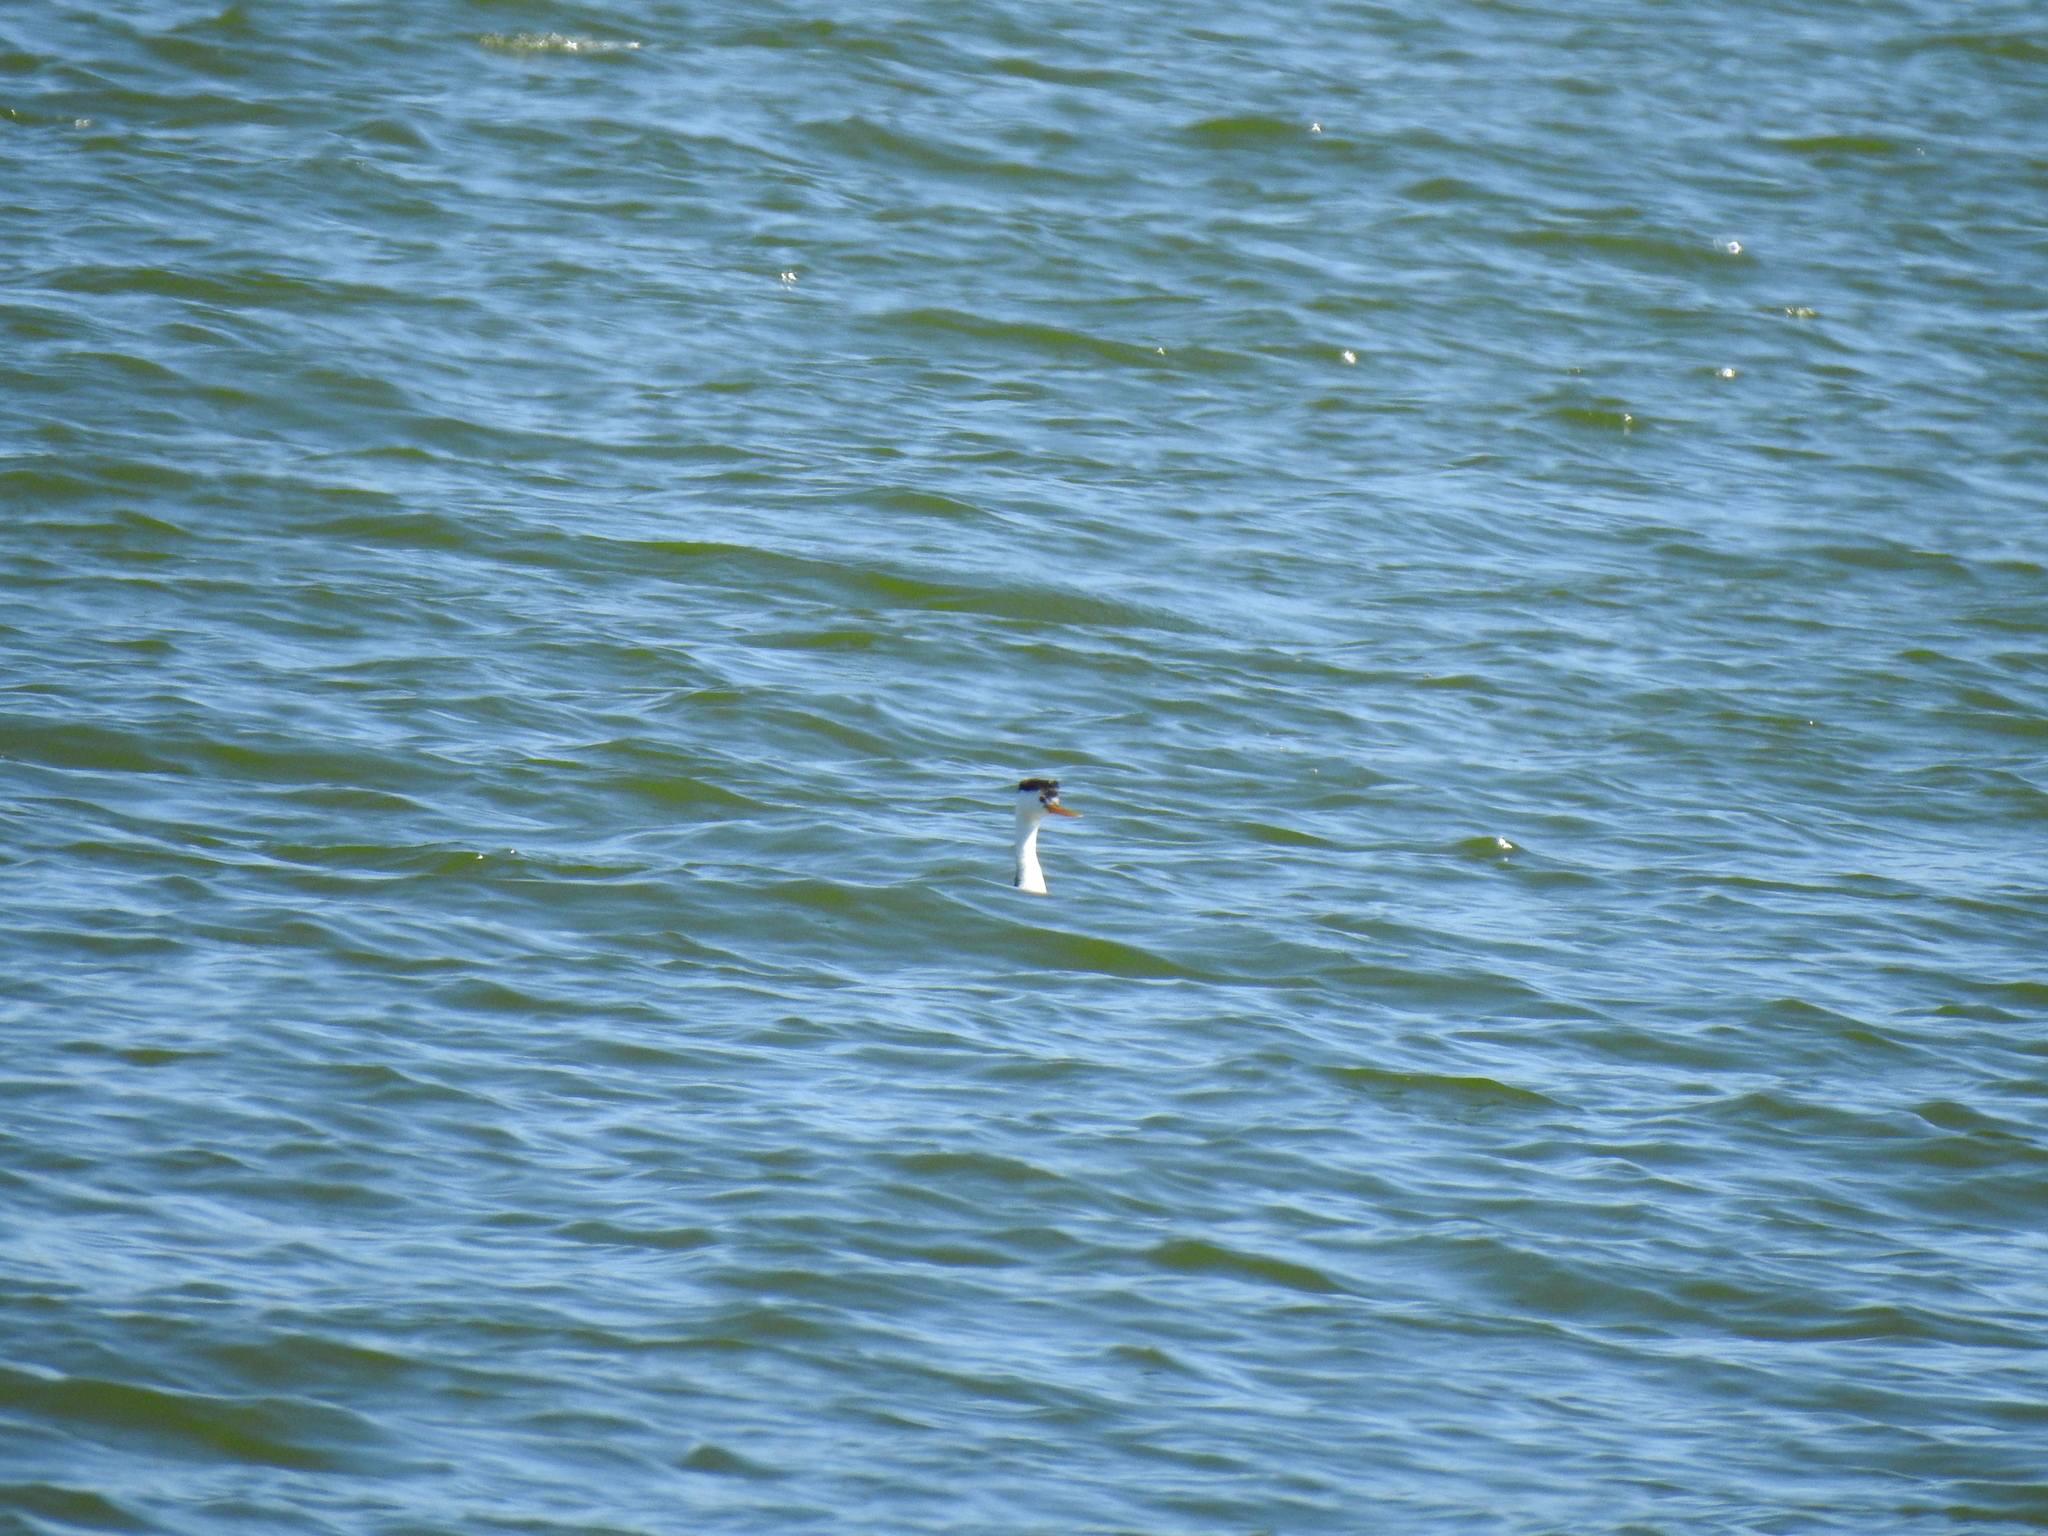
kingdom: Animalia
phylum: Chordata
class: Aves
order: Podicipediformes
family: Podicipedidae
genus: Aechmophorus
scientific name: Aechmophorus clarkii
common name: Clark's grebe
